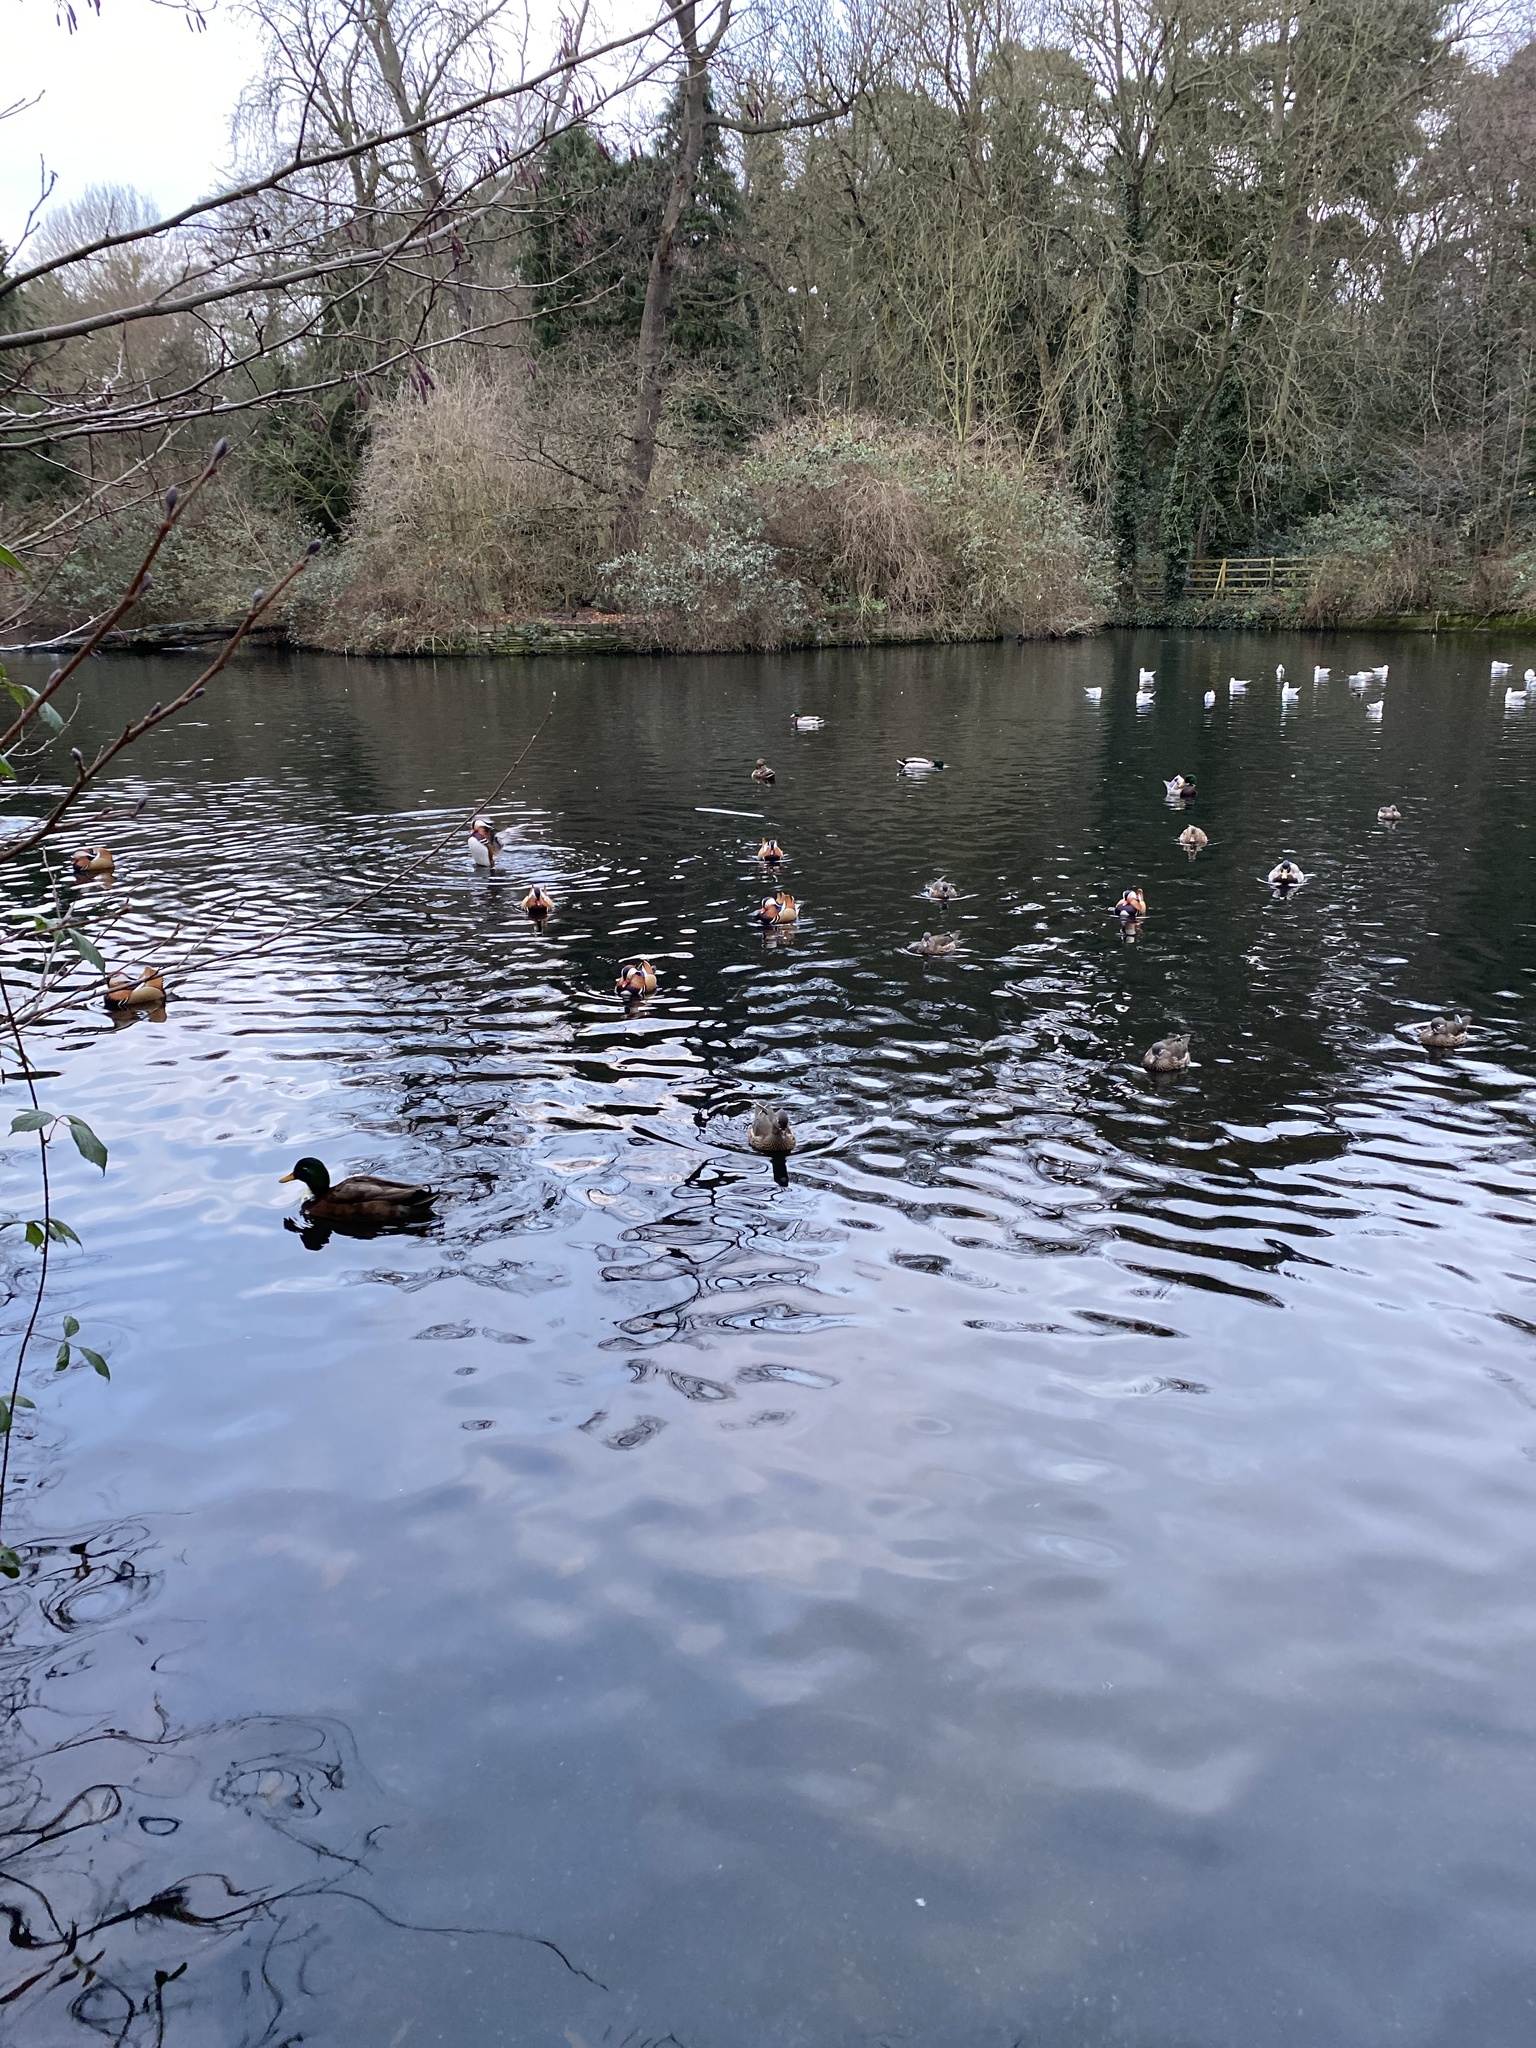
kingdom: Animalia
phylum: Chordata
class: Aves
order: Anseriformes
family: Anatidae
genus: Aix
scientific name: Aix galericulata
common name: Mandarin duck
